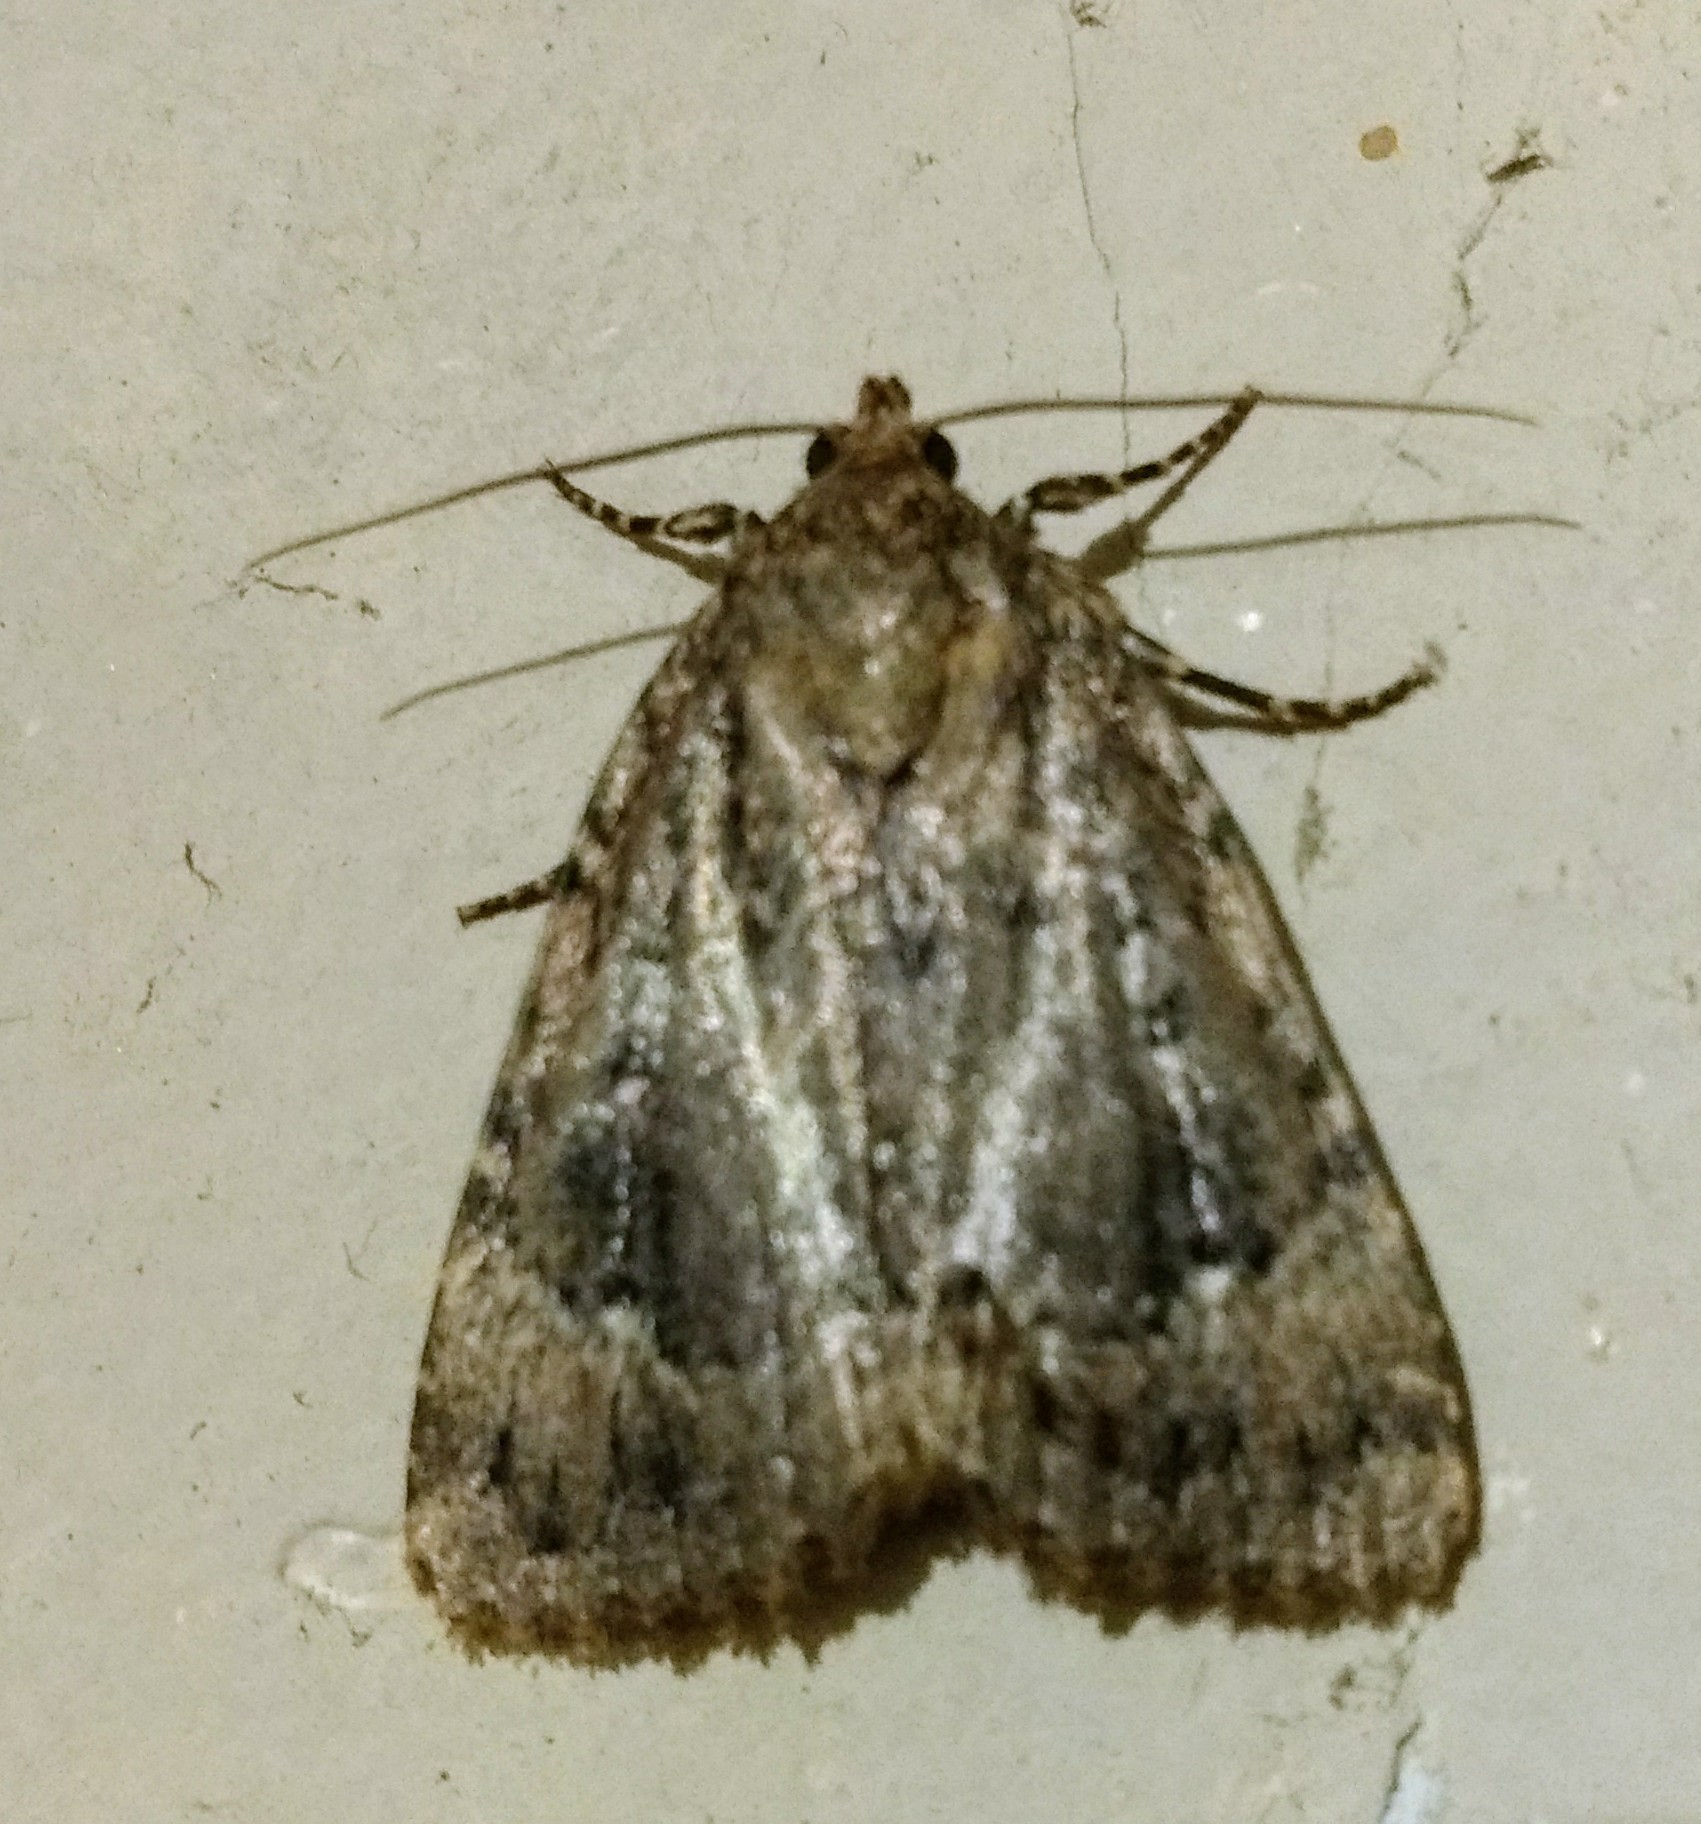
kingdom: Animalia
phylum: Arthropoda
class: Insecta
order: Lepidoptera
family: Noctuidae
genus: Amphipyra
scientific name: Amphipyra pyramidoides
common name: American copper underwing
